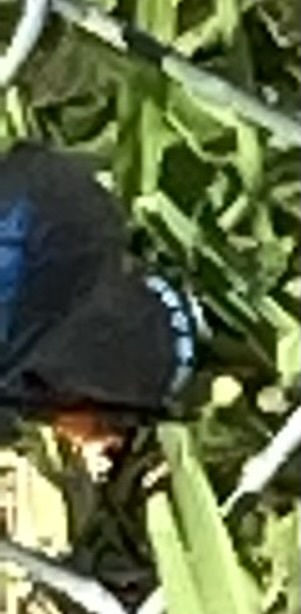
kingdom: Animalia
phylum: Arthropoda
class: Insecta
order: Lepidoptera
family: Lycaenidae
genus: Eumaeus
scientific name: Eumaeus atala
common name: Atala
